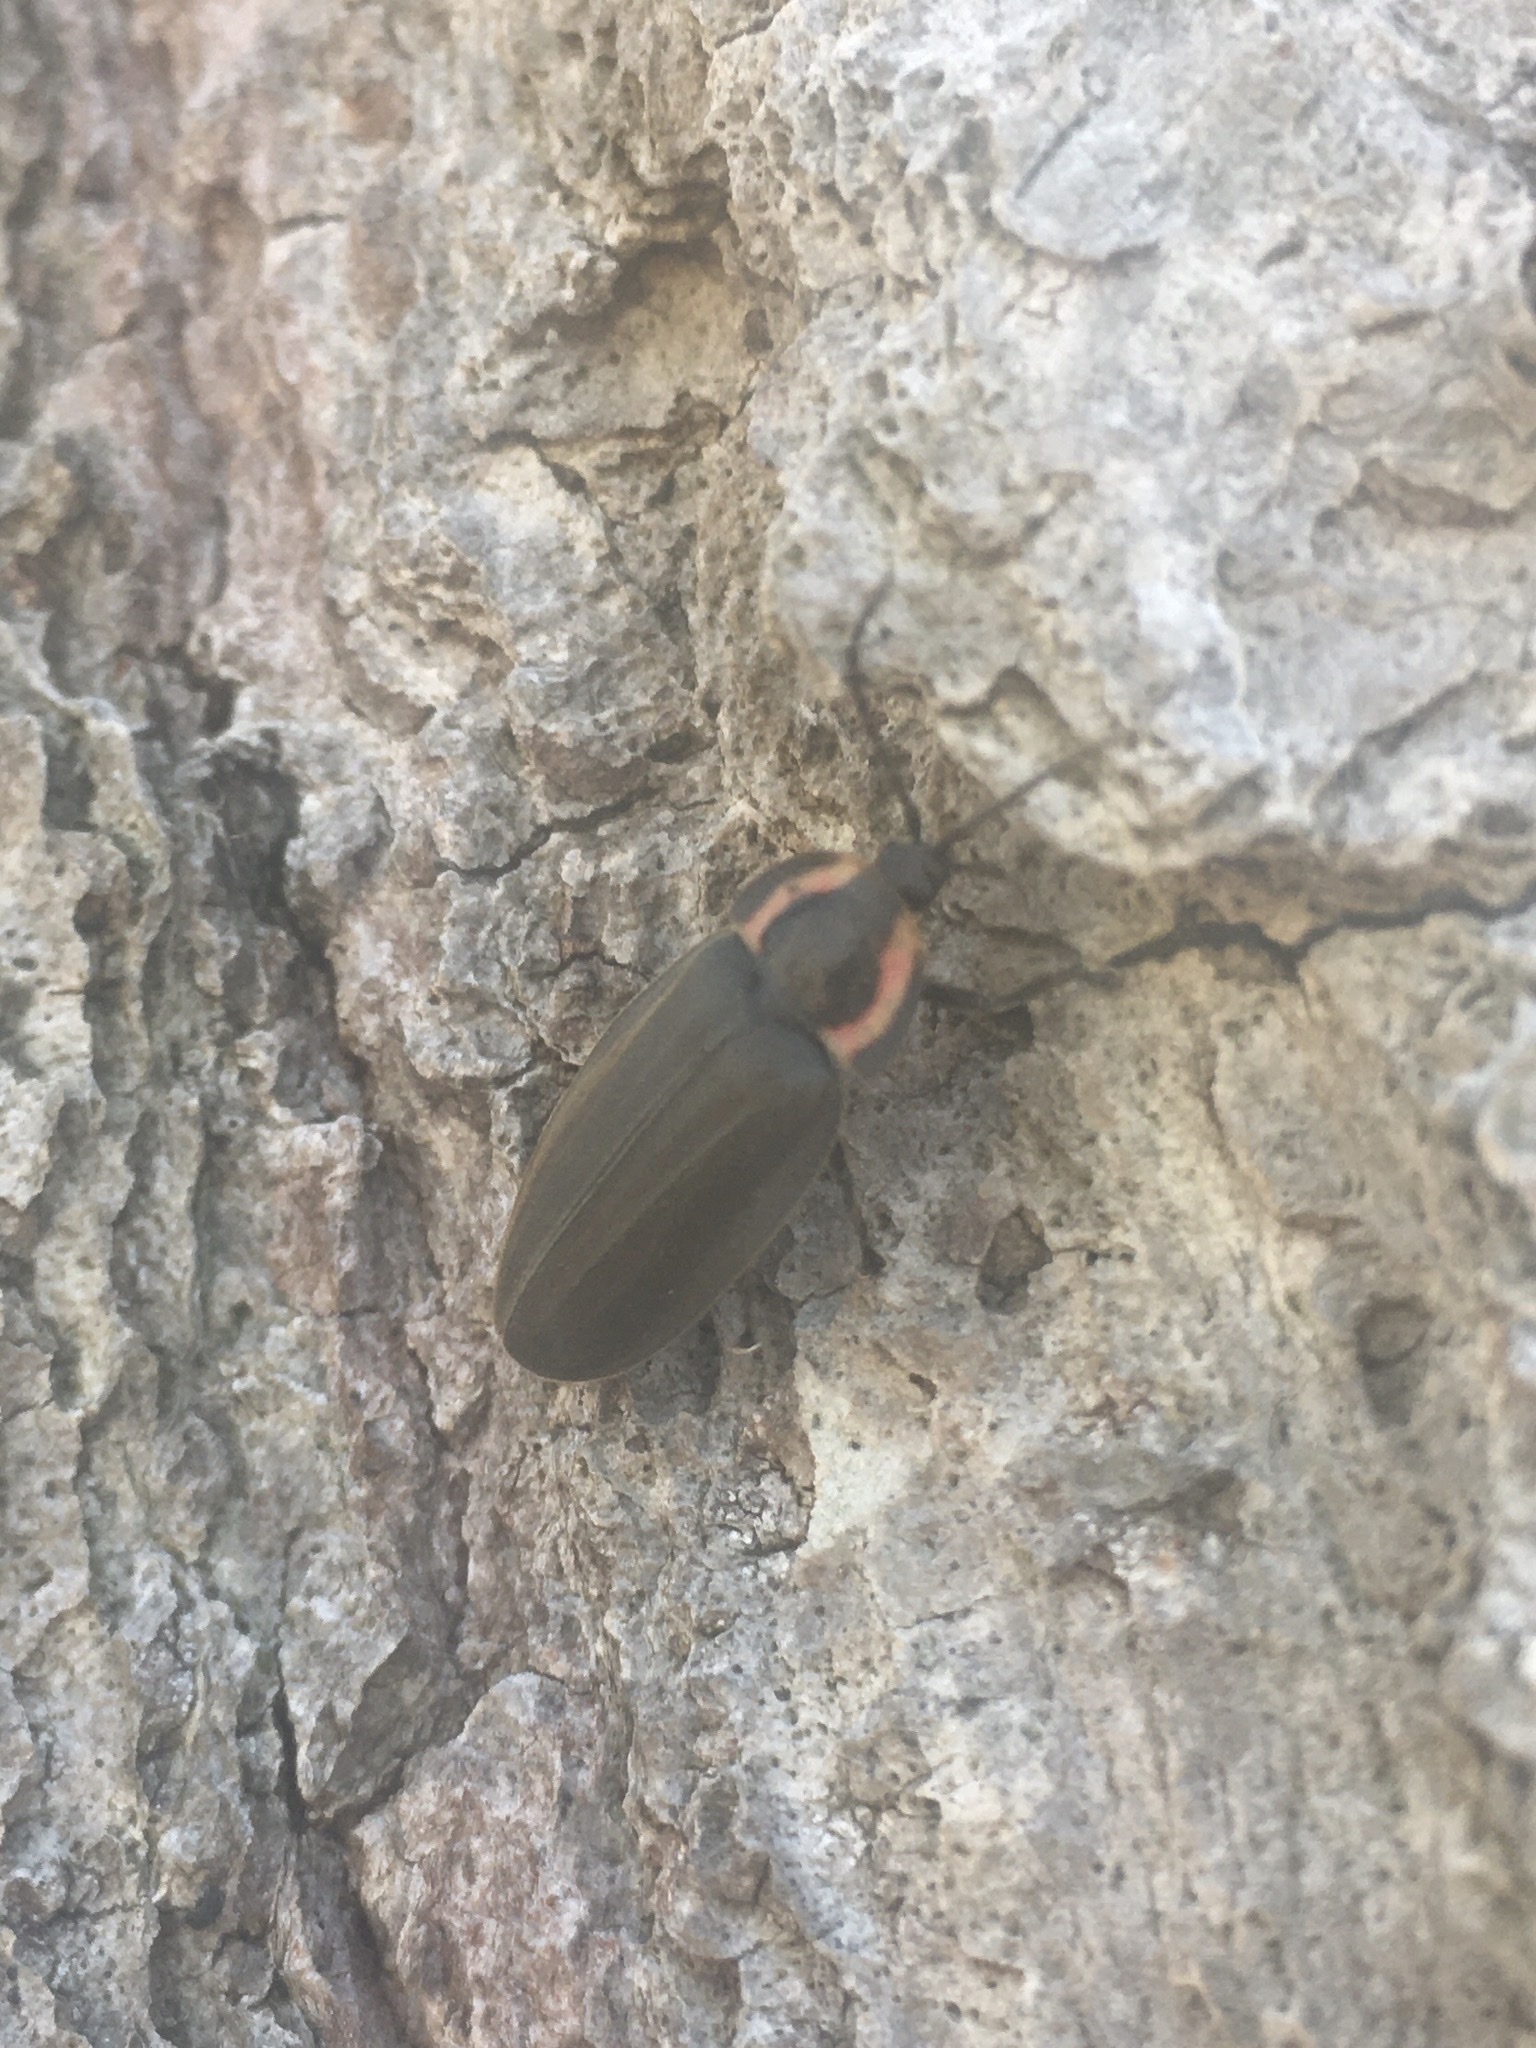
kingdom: Animalia
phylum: Arthropoda
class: Insecta
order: Coleoptera
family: Lampyridae
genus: Photinus
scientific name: Photinus corrusca
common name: Winter firefly
